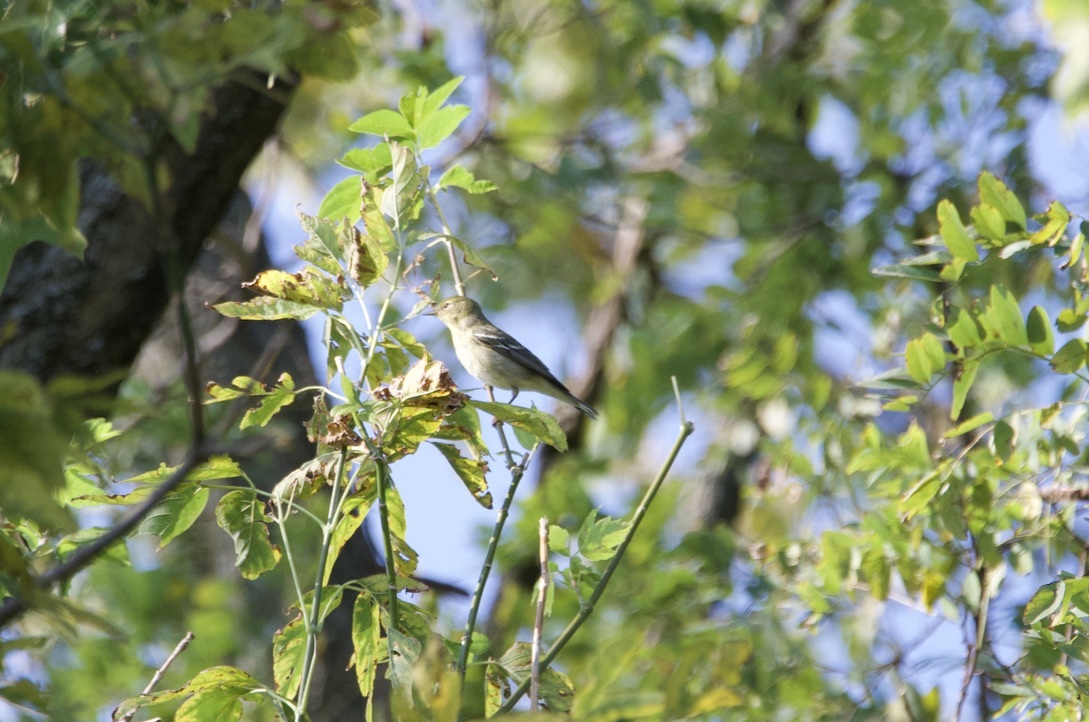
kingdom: Animalia
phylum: Chordata
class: Aves
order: Passeriformes
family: Parulidae
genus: Setophaga
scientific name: Setophaga striata
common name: Blackpoll warbler
